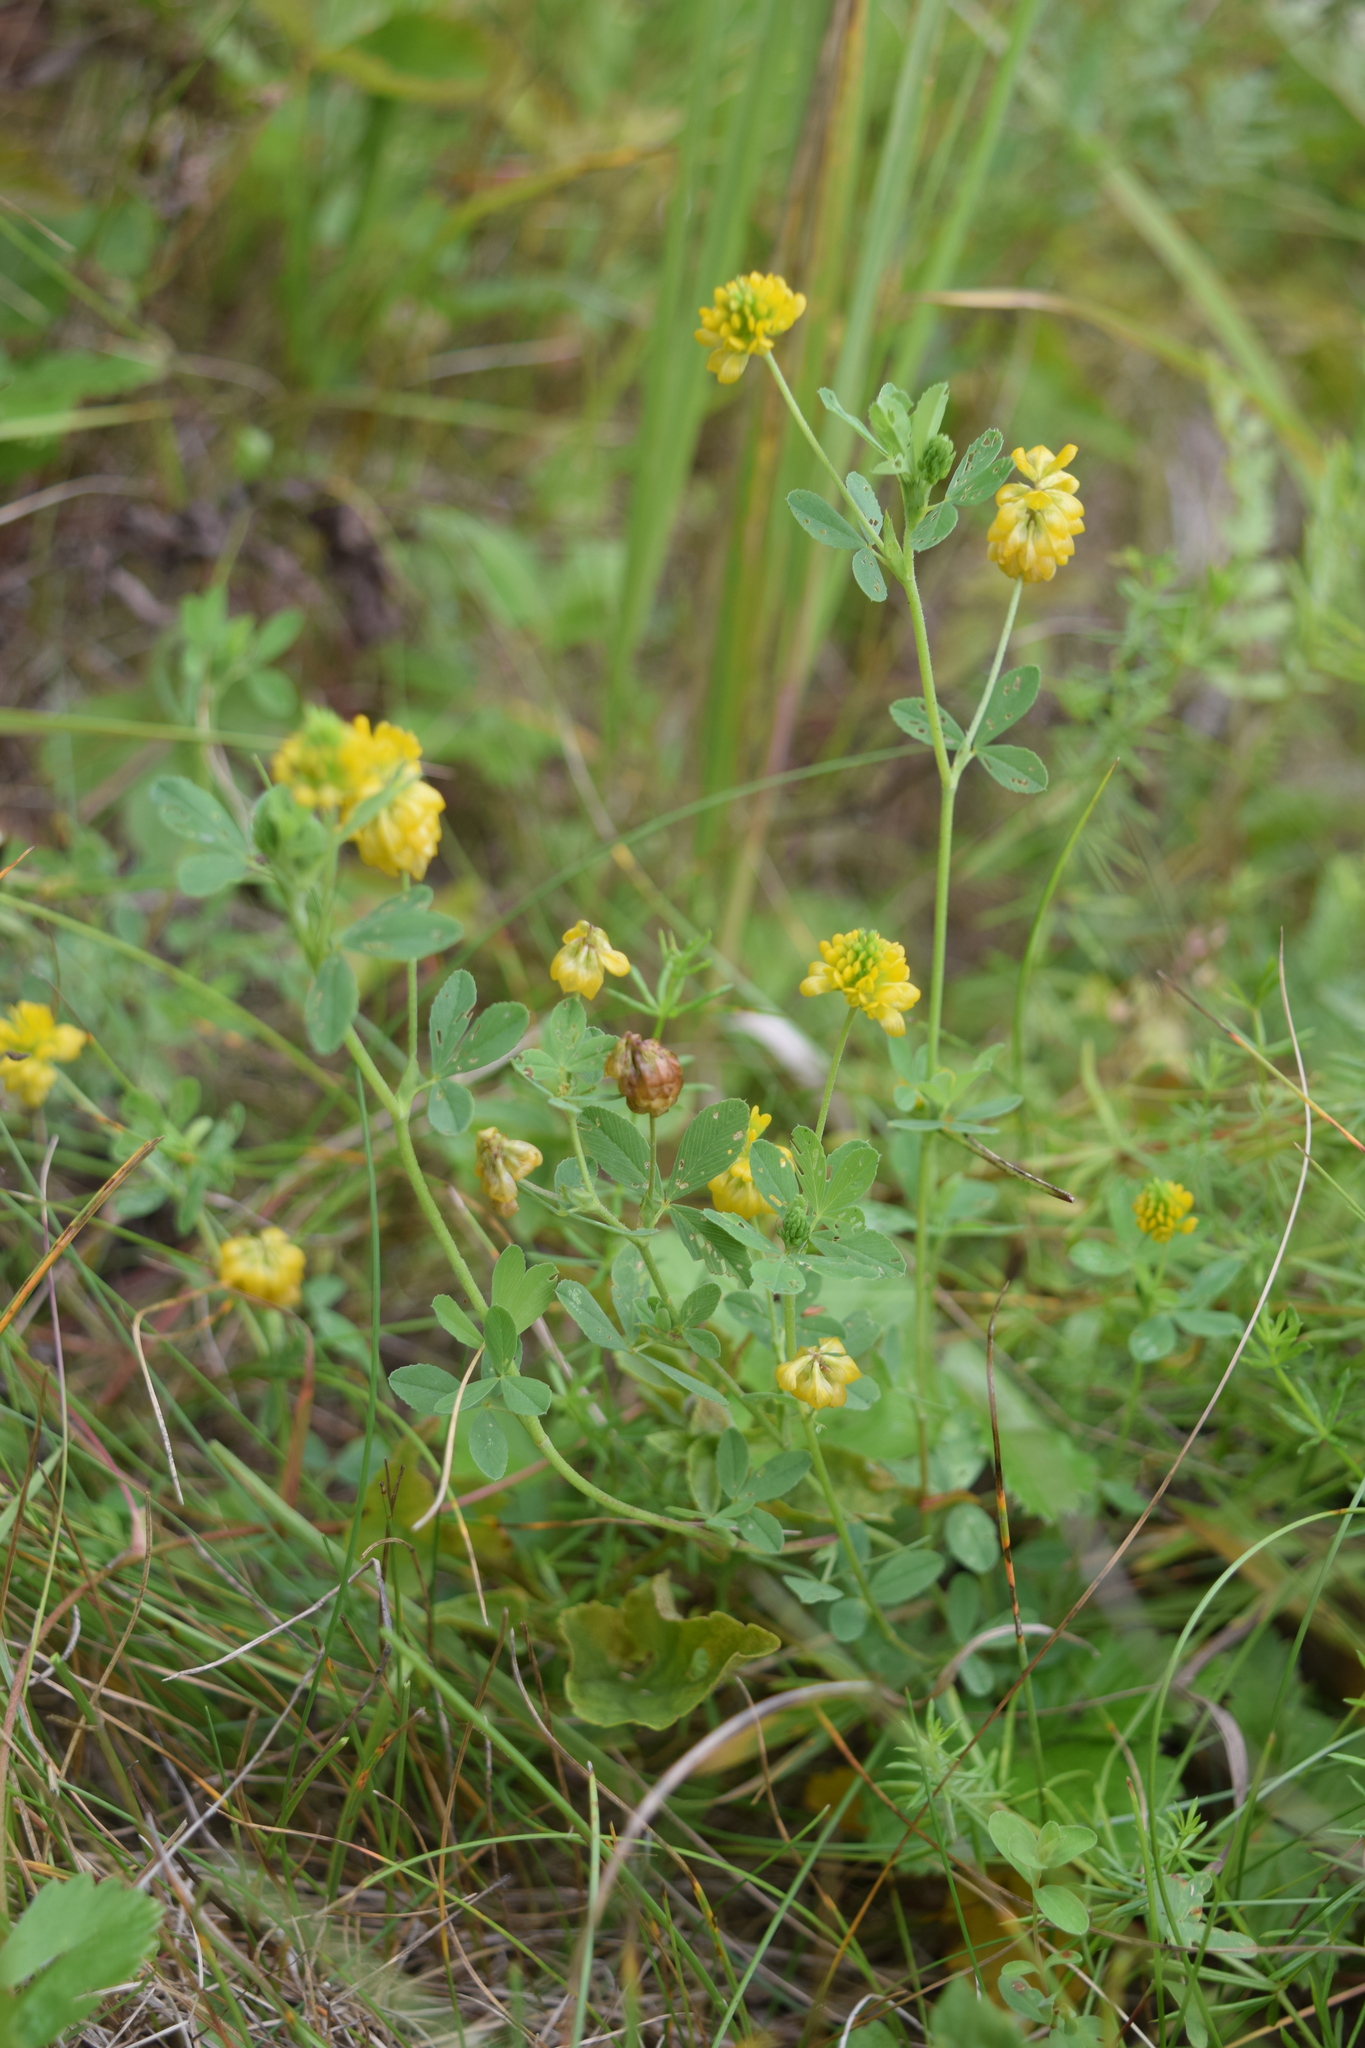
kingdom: Plantae
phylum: Tracheophyta
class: Magnoliopsida
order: Fabales
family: Fabaceae
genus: Trifolium
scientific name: Trifolium aureum
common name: Golden clover
